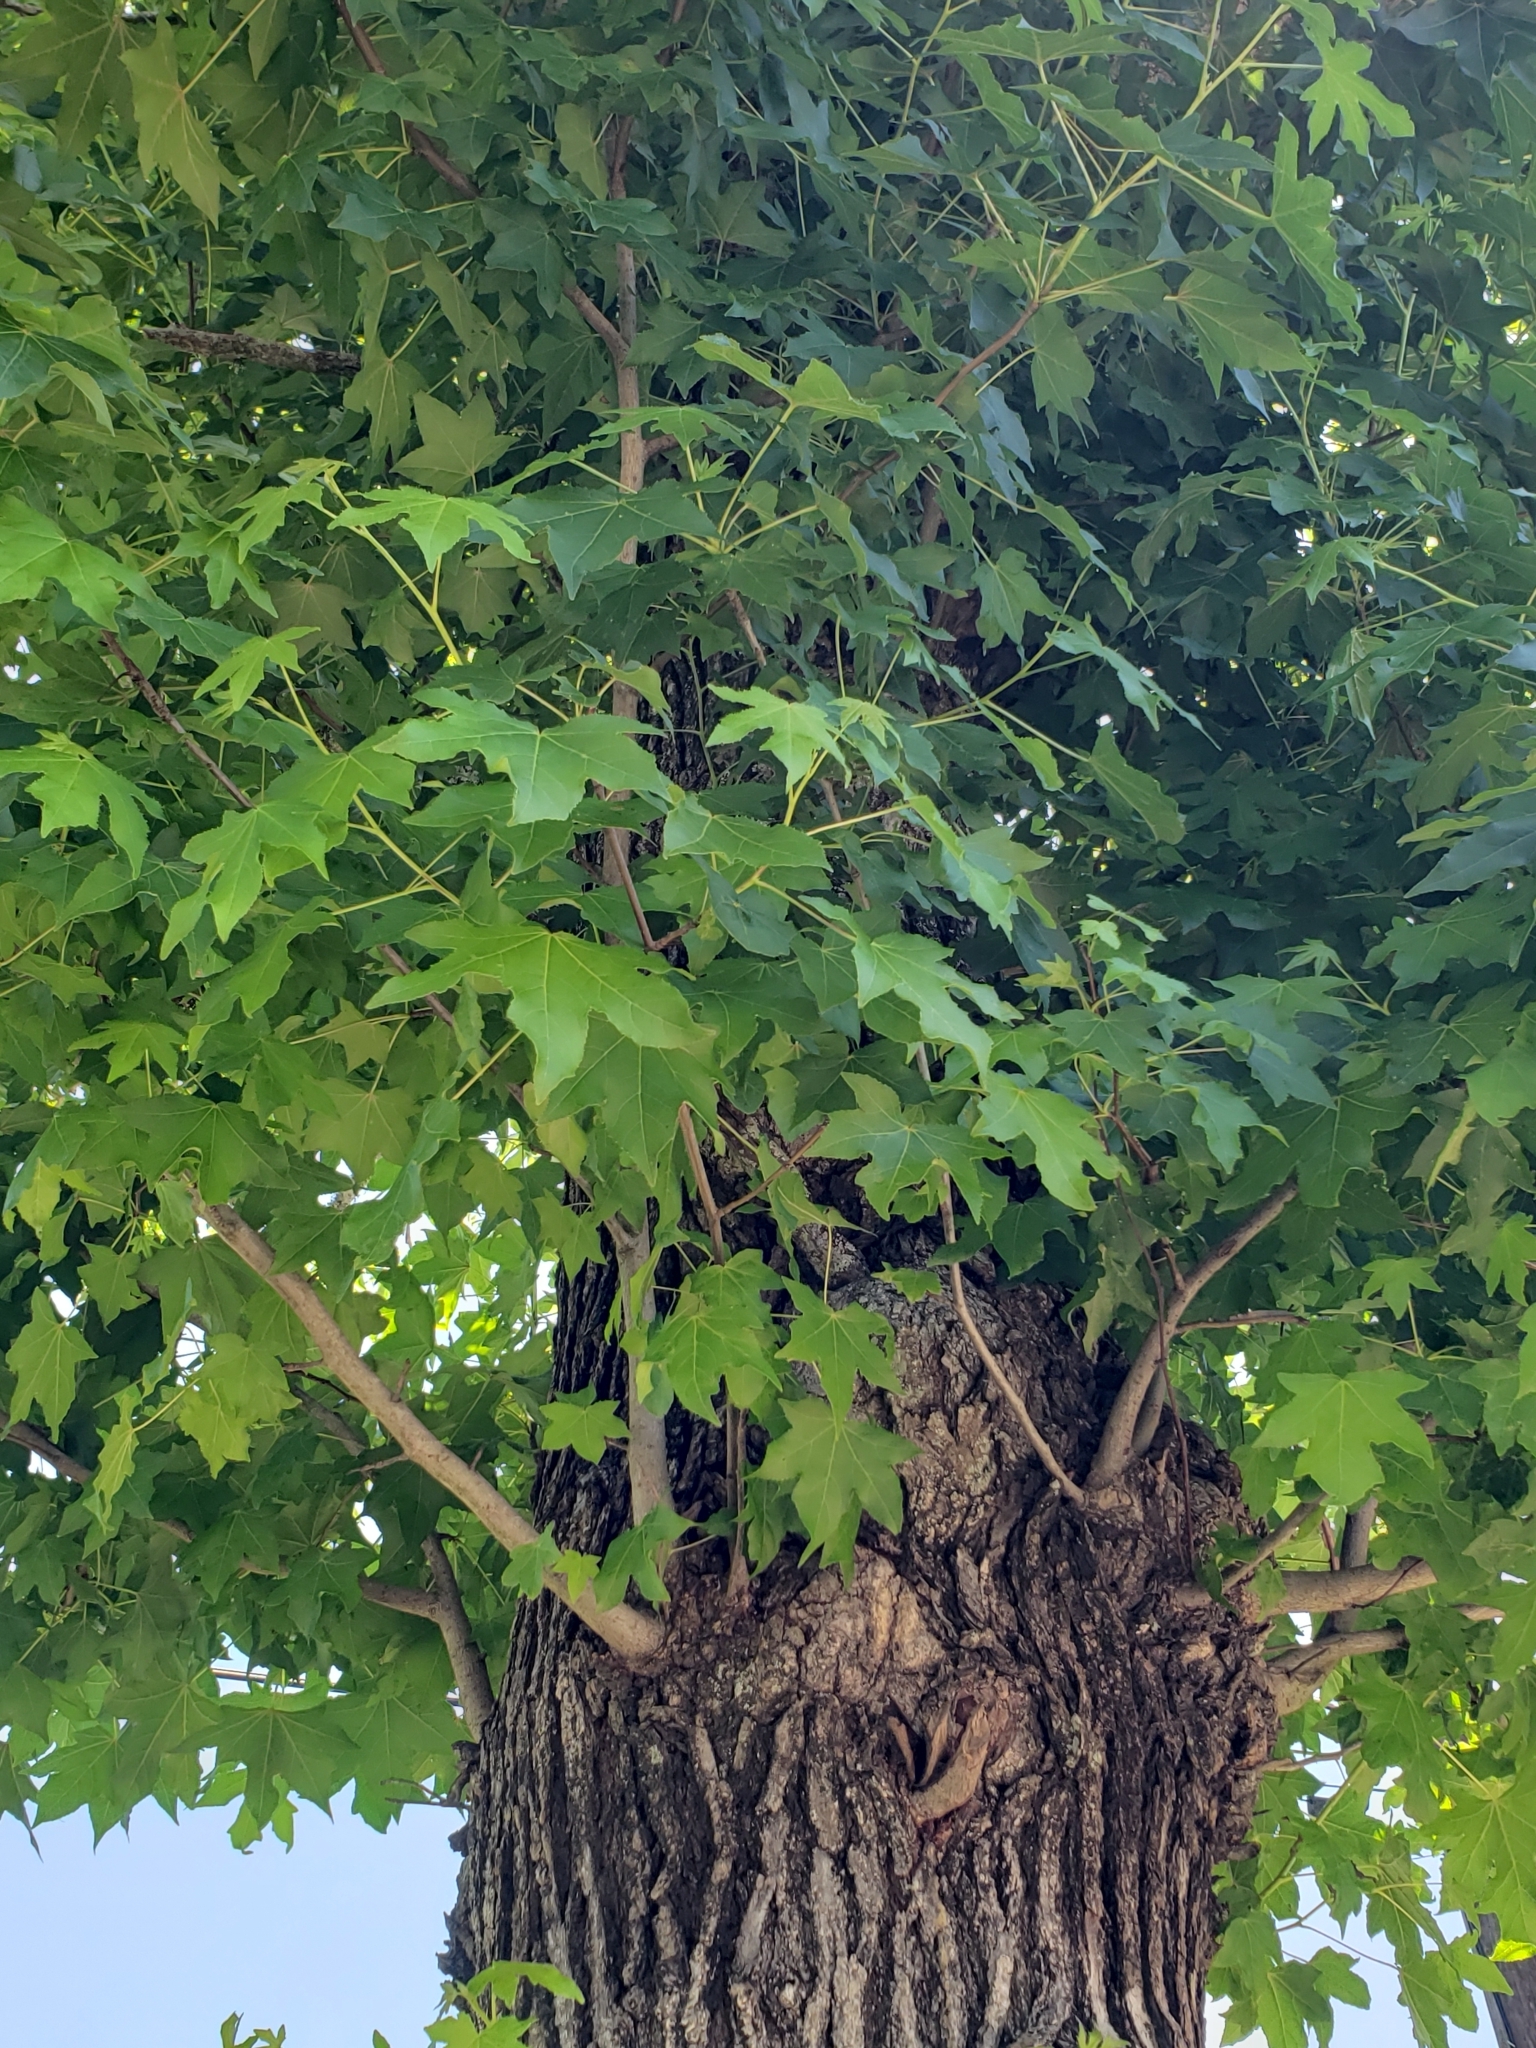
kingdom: Plantae
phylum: Tracheophyta
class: Magnoliopsida
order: Saxifragales
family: Altingiaceae
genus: Liquidambar
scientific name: Liquidambar styraciflua
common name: Sweet gum
